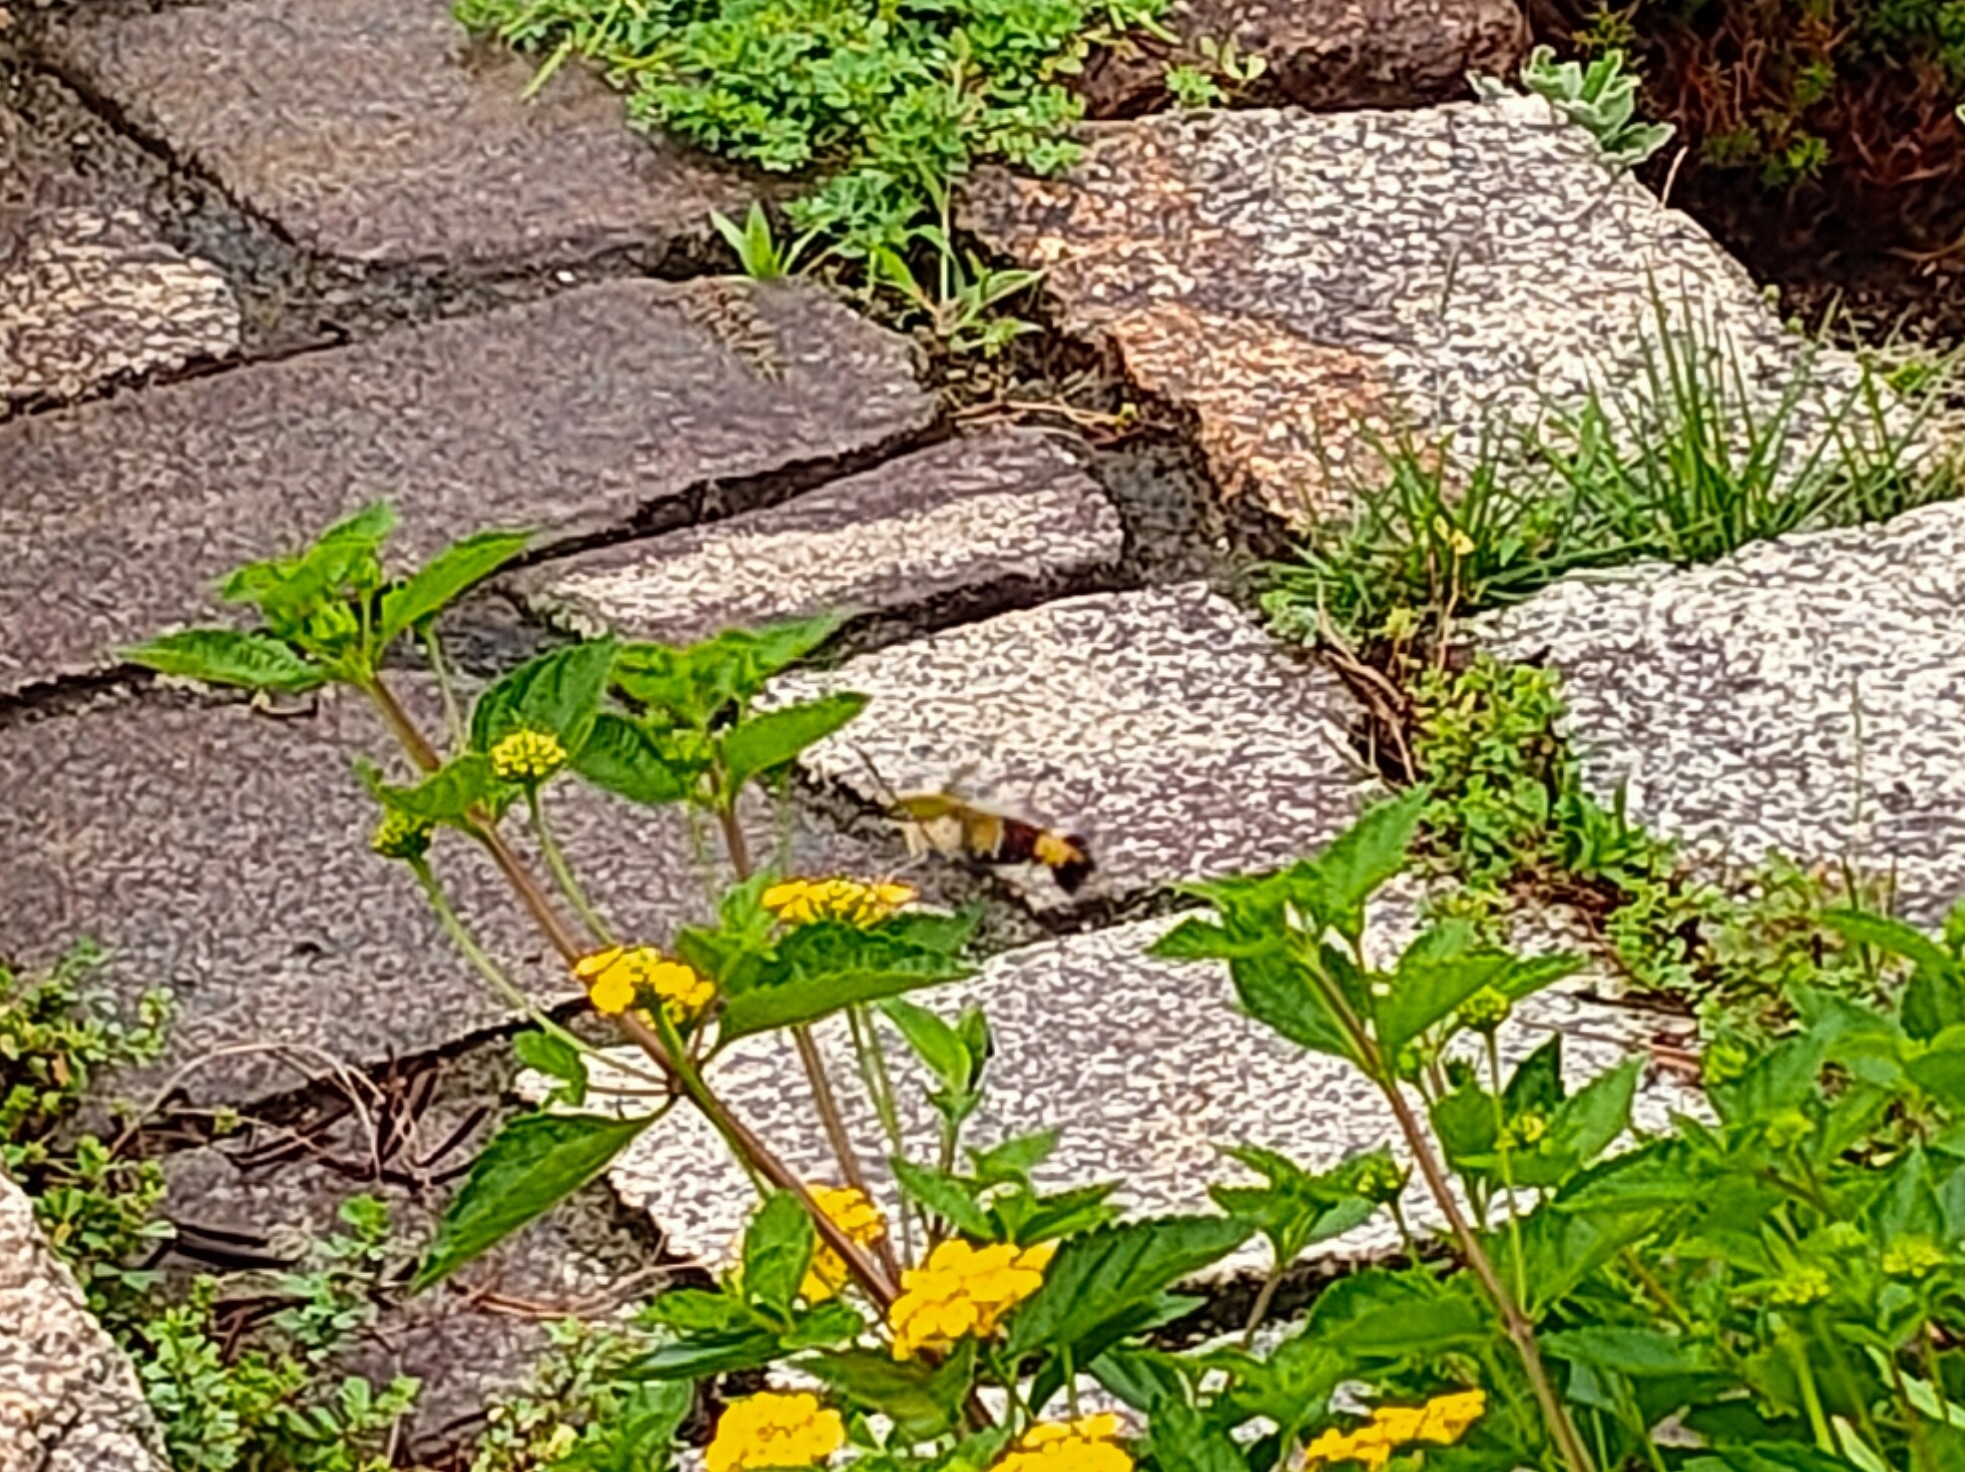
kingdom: Animalia
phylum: Arthropoda
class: Insecta
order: Lepidoptera
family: Sphingidae
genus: Cephonodes
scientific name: Cephonodes hylas
